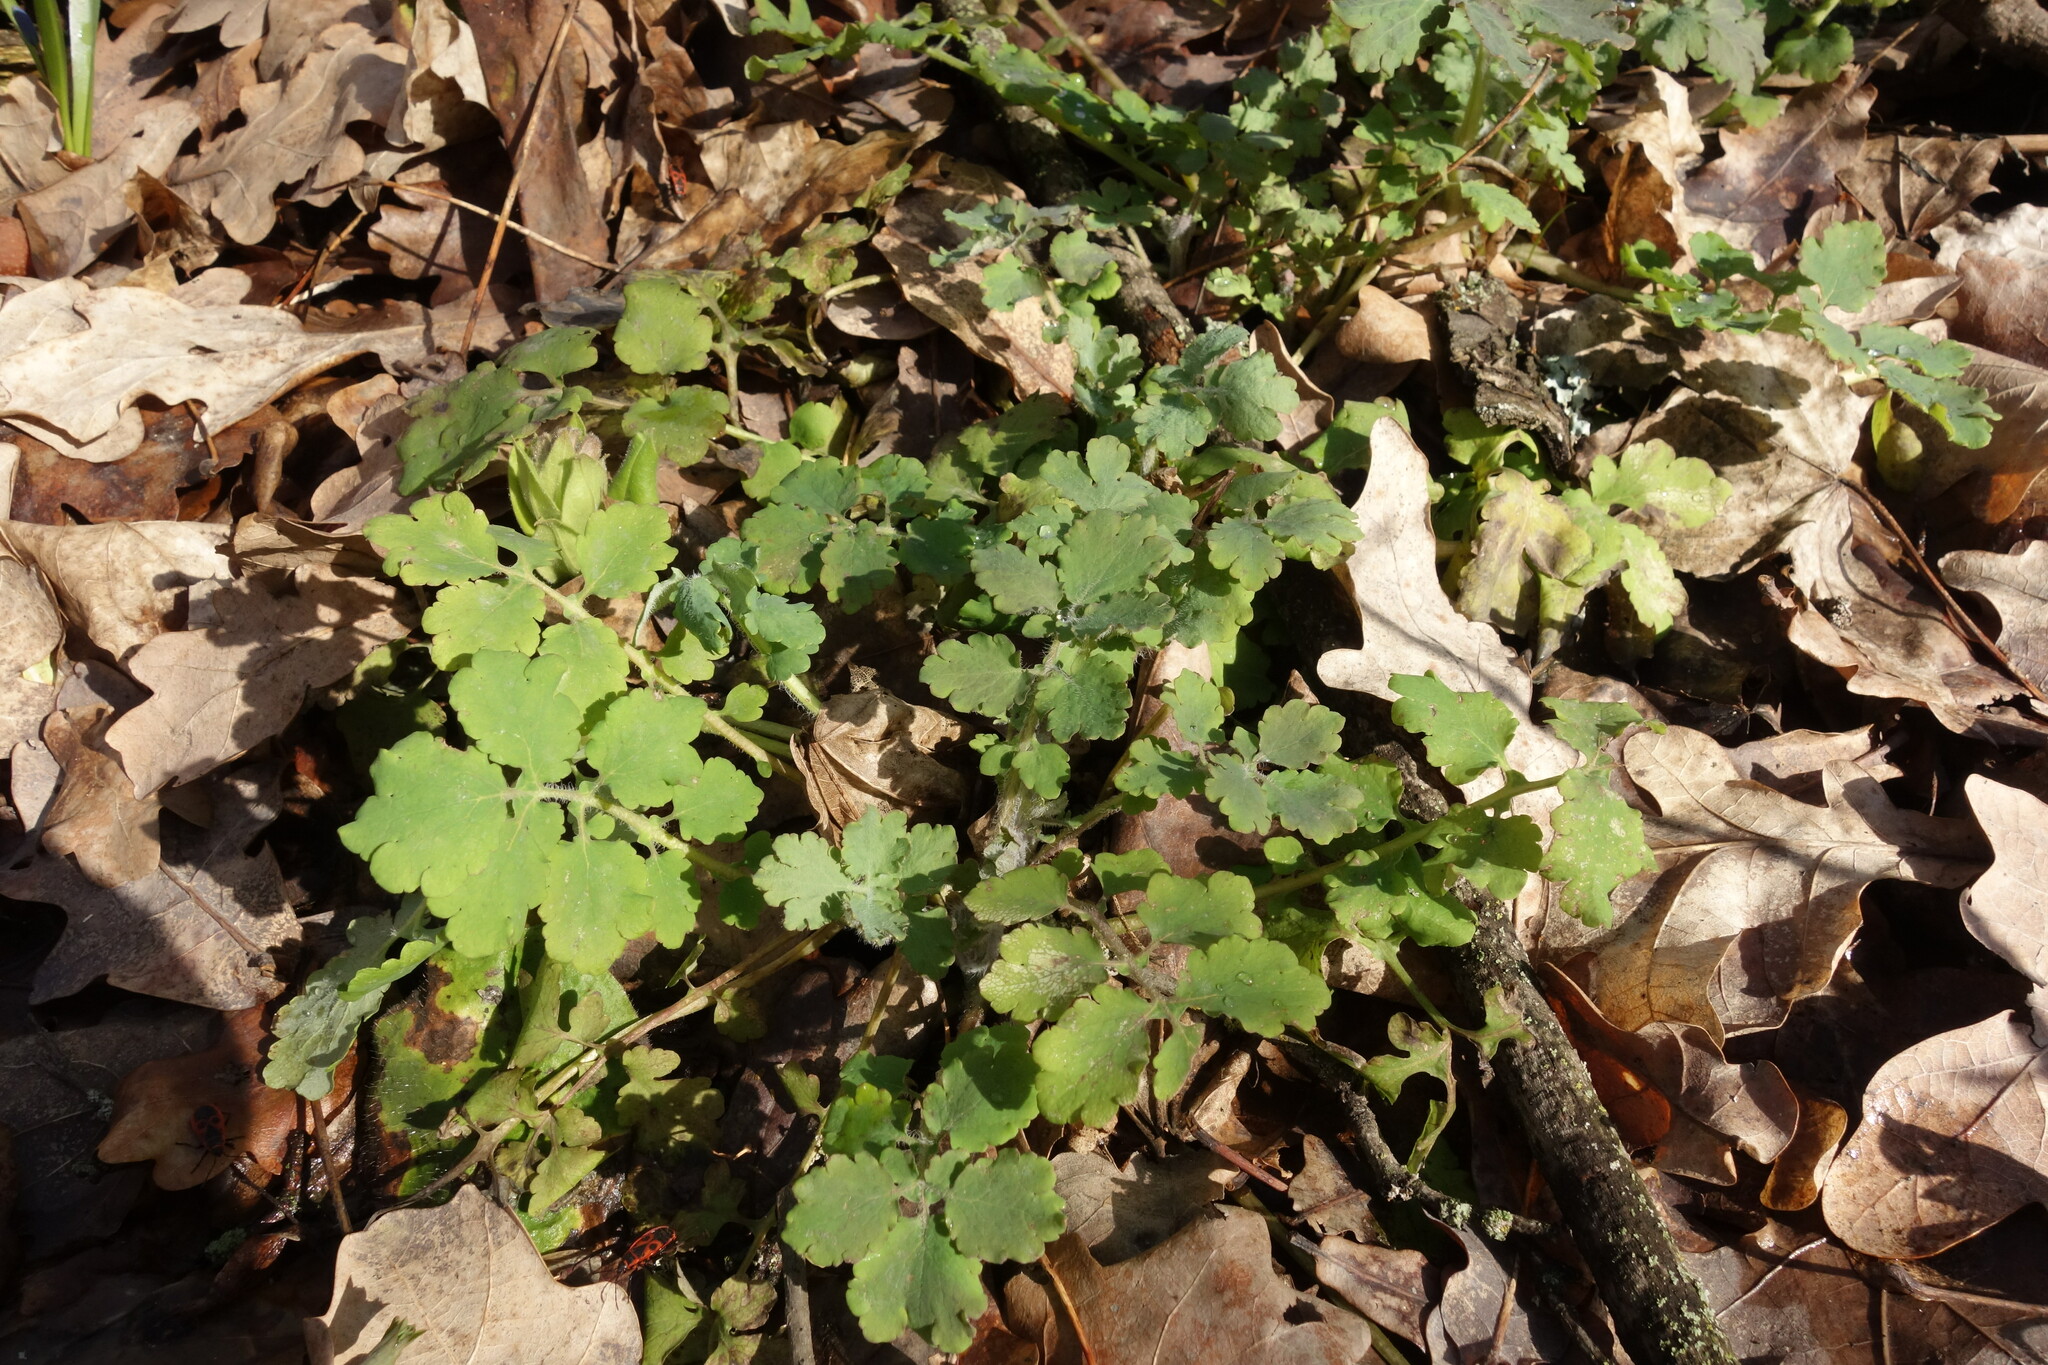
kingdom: Plantae
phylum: Tracheophyta
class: Magnoliopsida
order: Ranunculales
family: Papaveraceae
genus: Chelidonium
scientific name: Chelidonium majus
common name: Greater celandine
